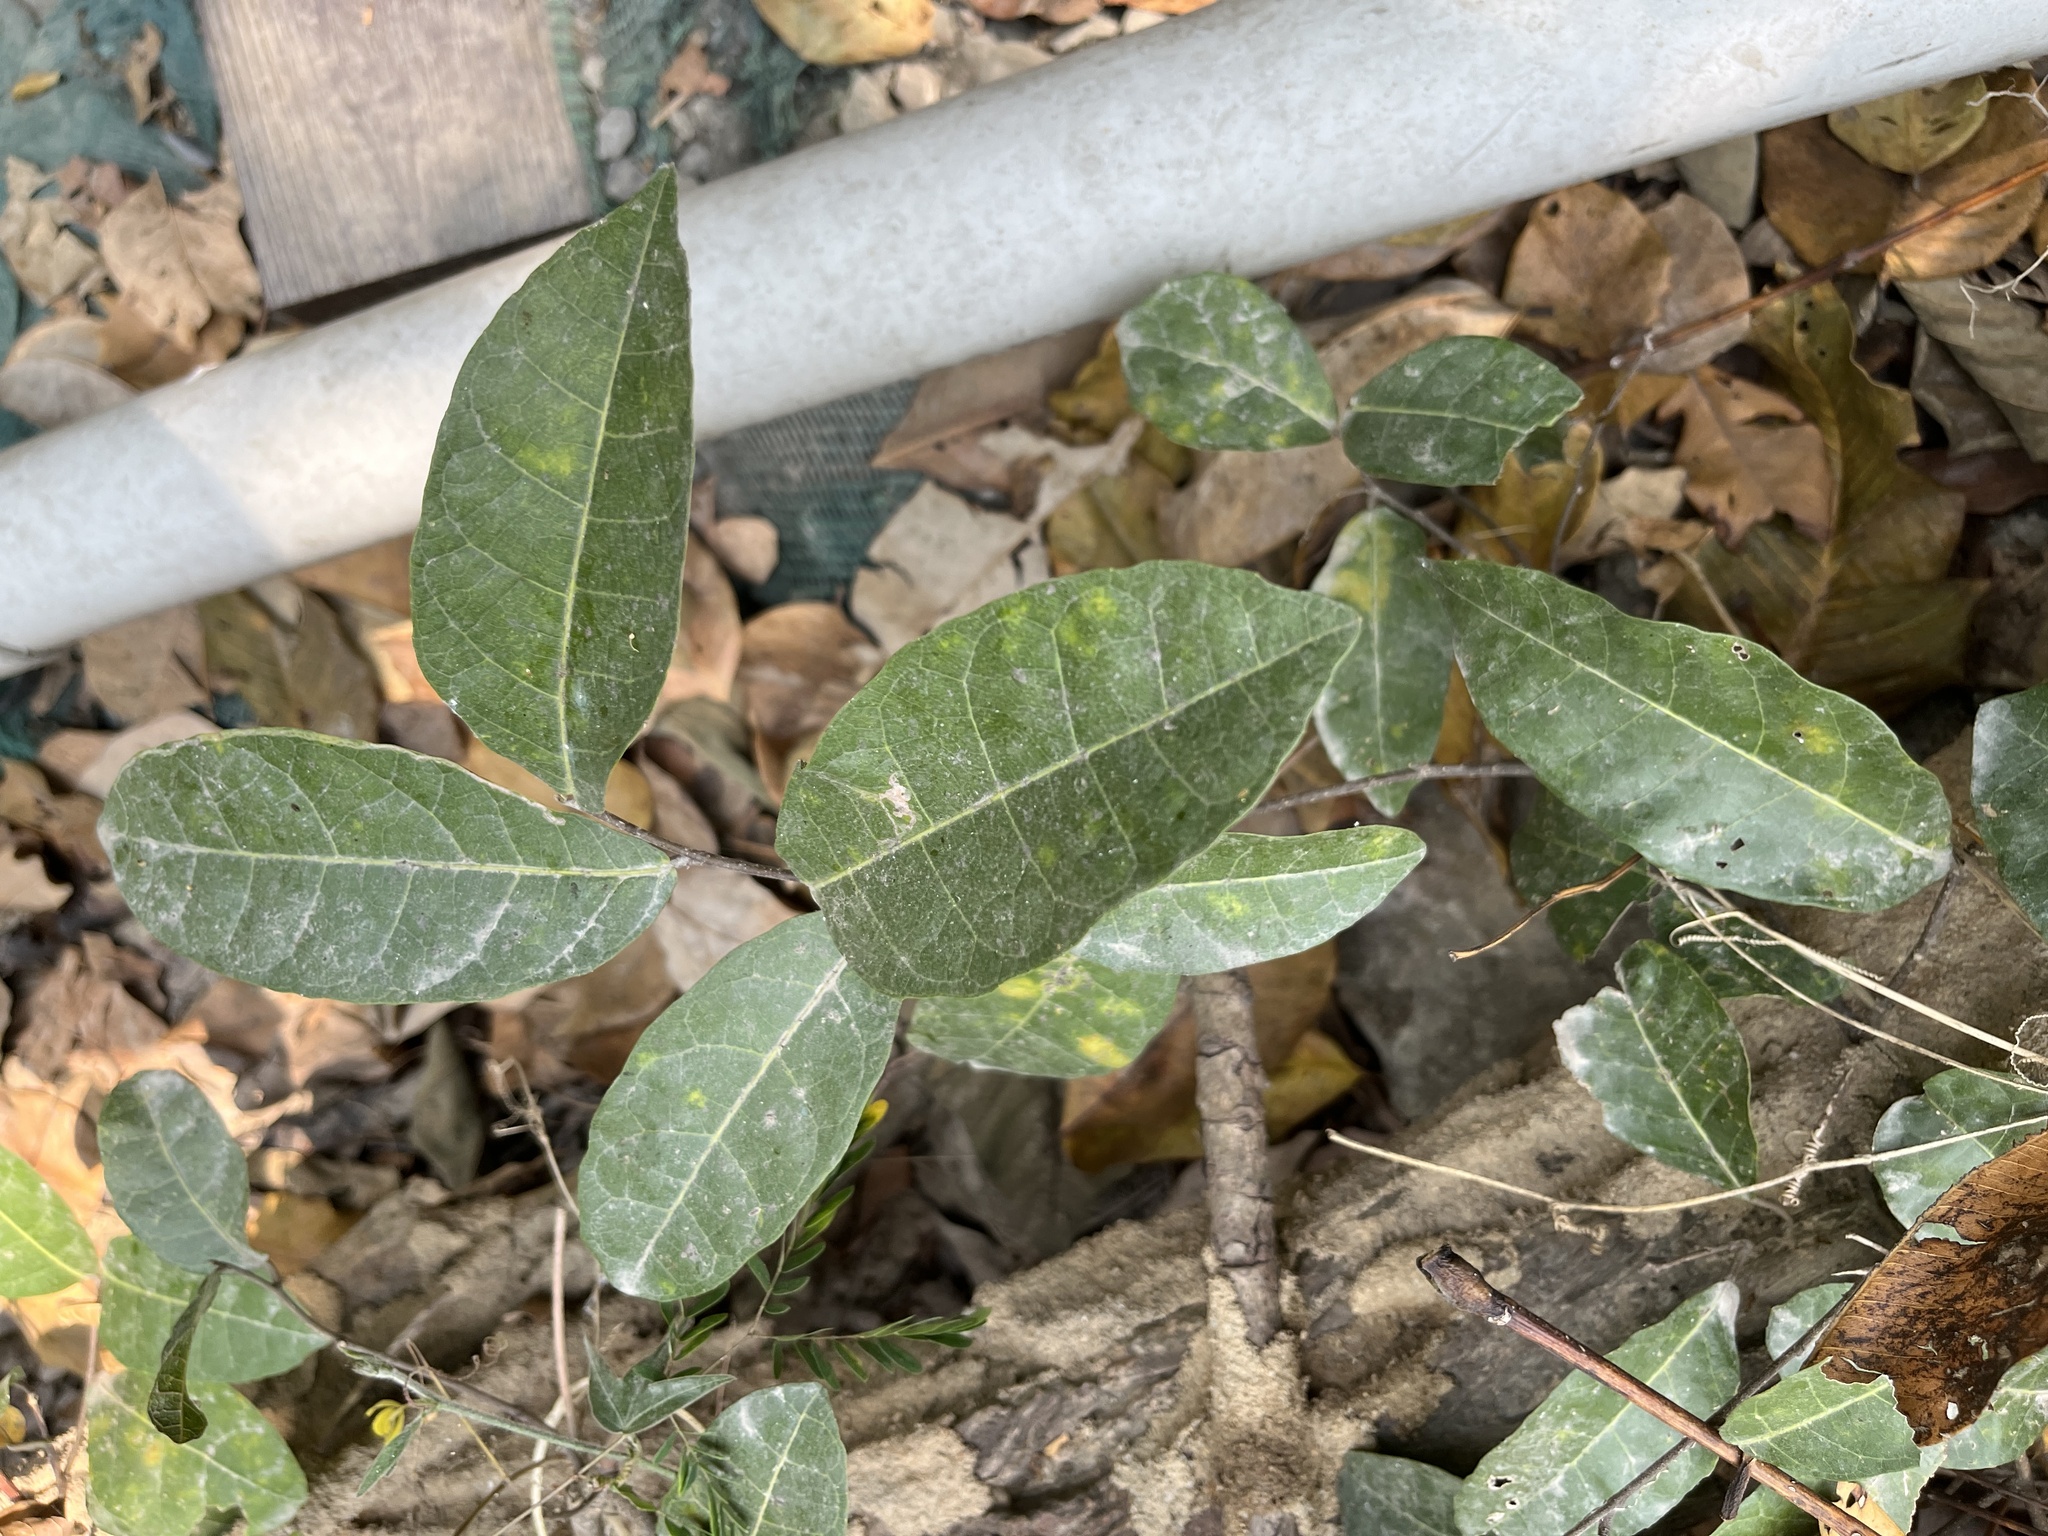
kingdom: Plantae
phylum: Tracheophyta
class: Magnoliopsida
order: Rosales
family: Moraceae
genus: Malaisia
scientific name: Malaisia scandens
